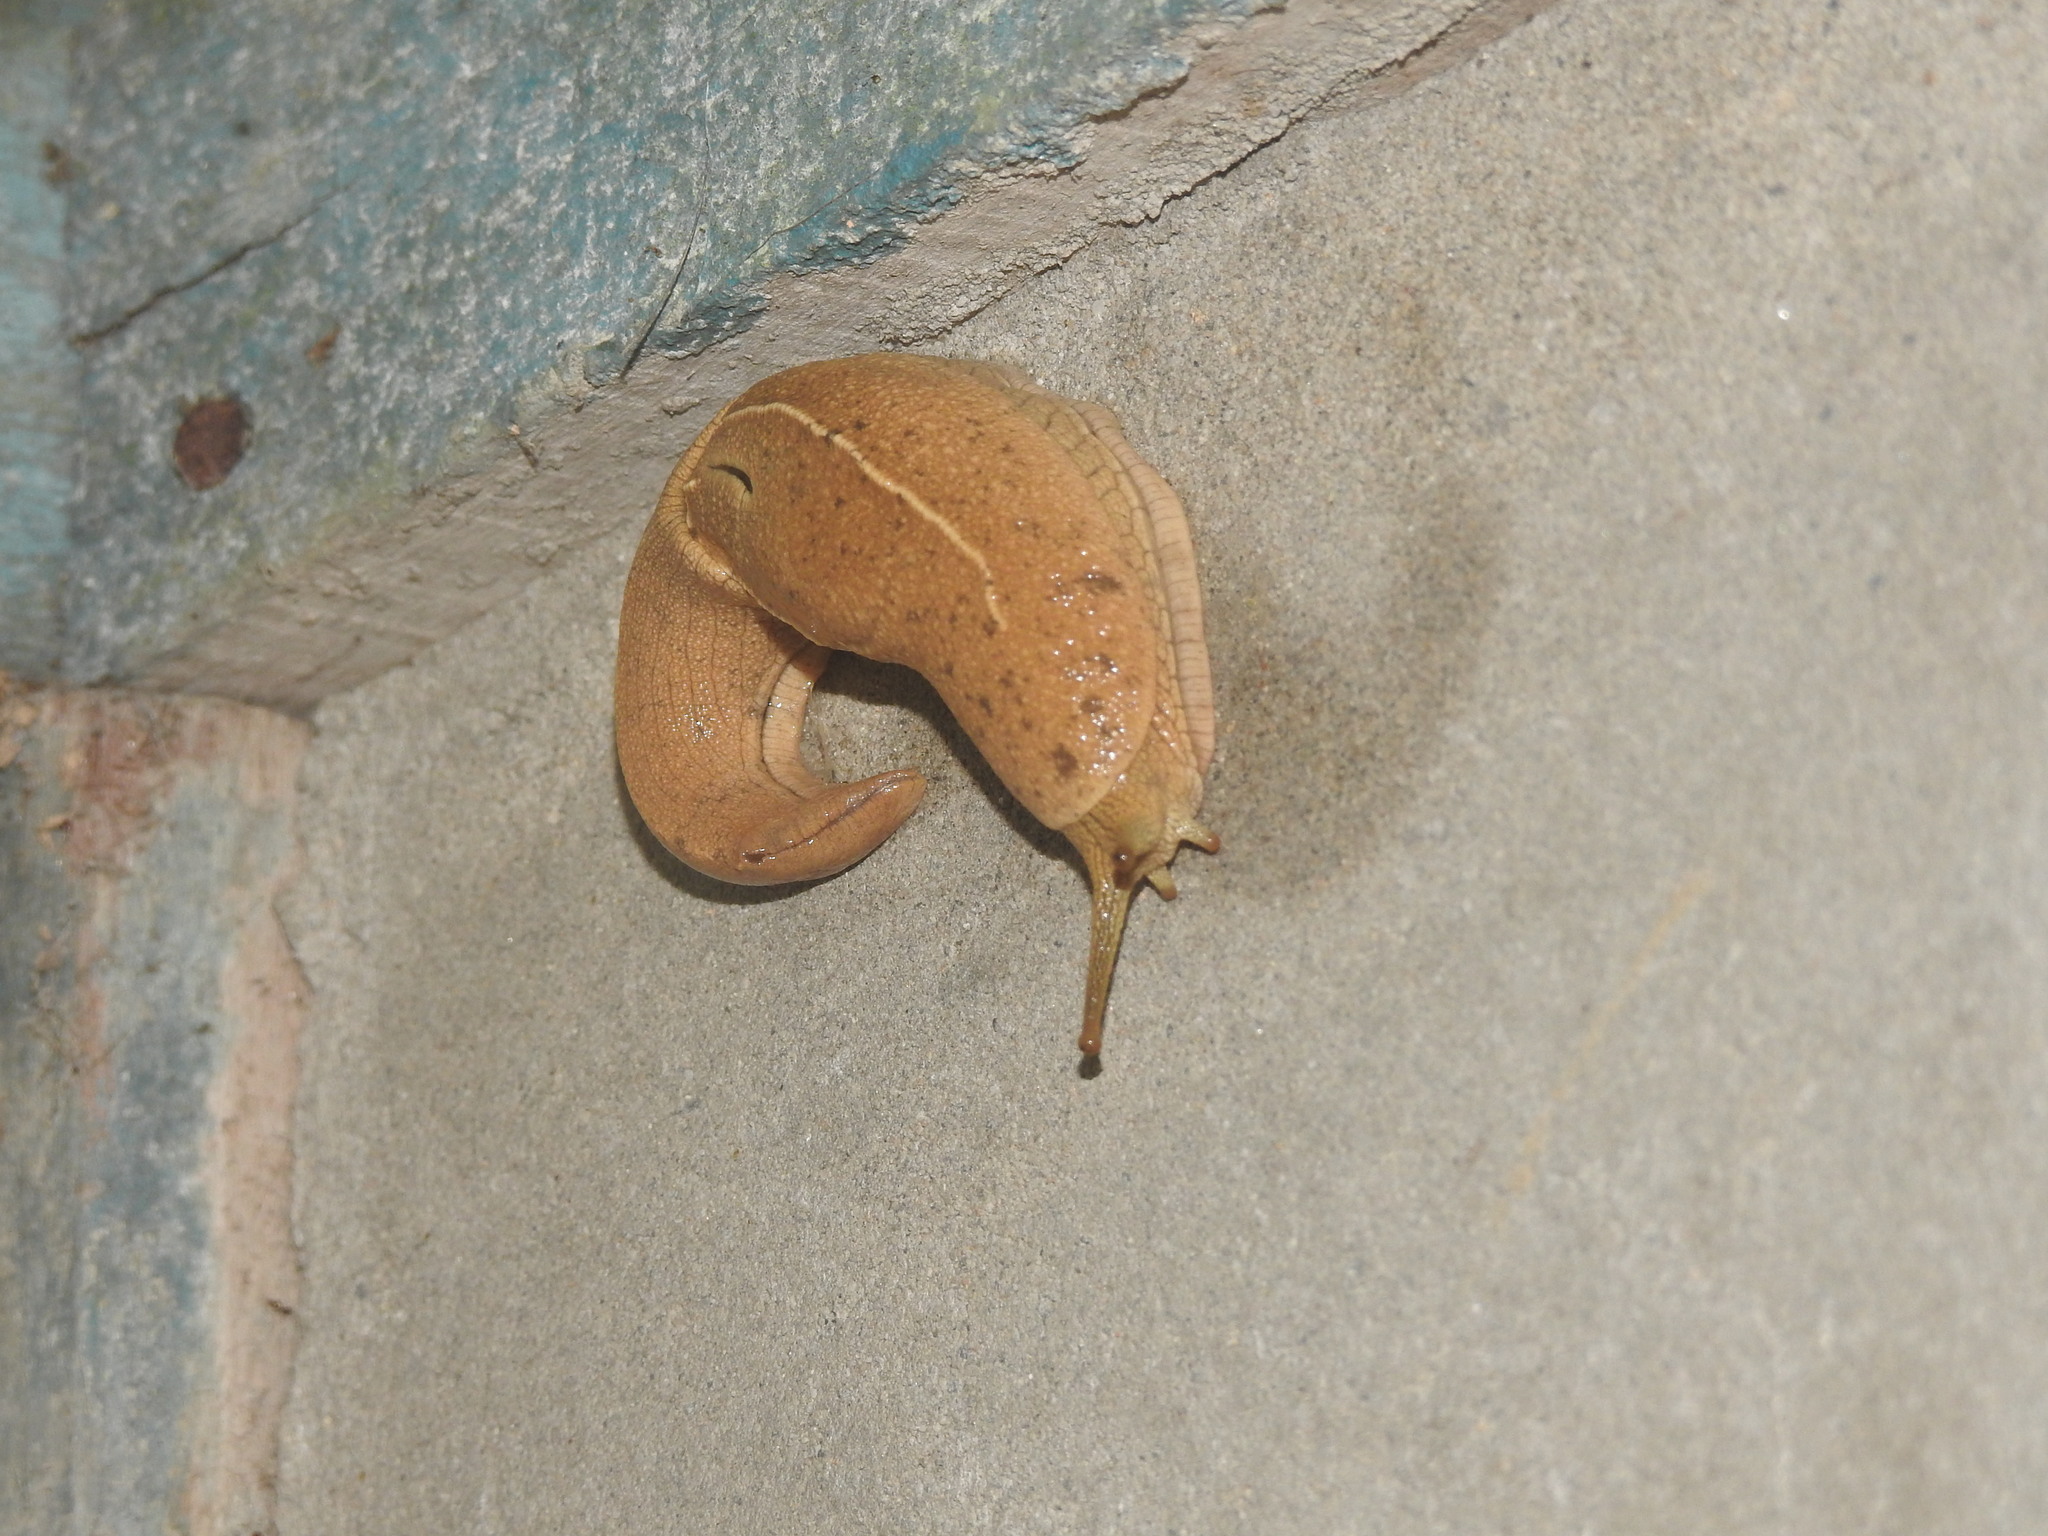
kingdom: Animalia
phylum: Mollusca
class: Gastropoda
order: Stylommatophora
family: Helicarionidae
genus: Girasia
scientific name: Girasia crocea
